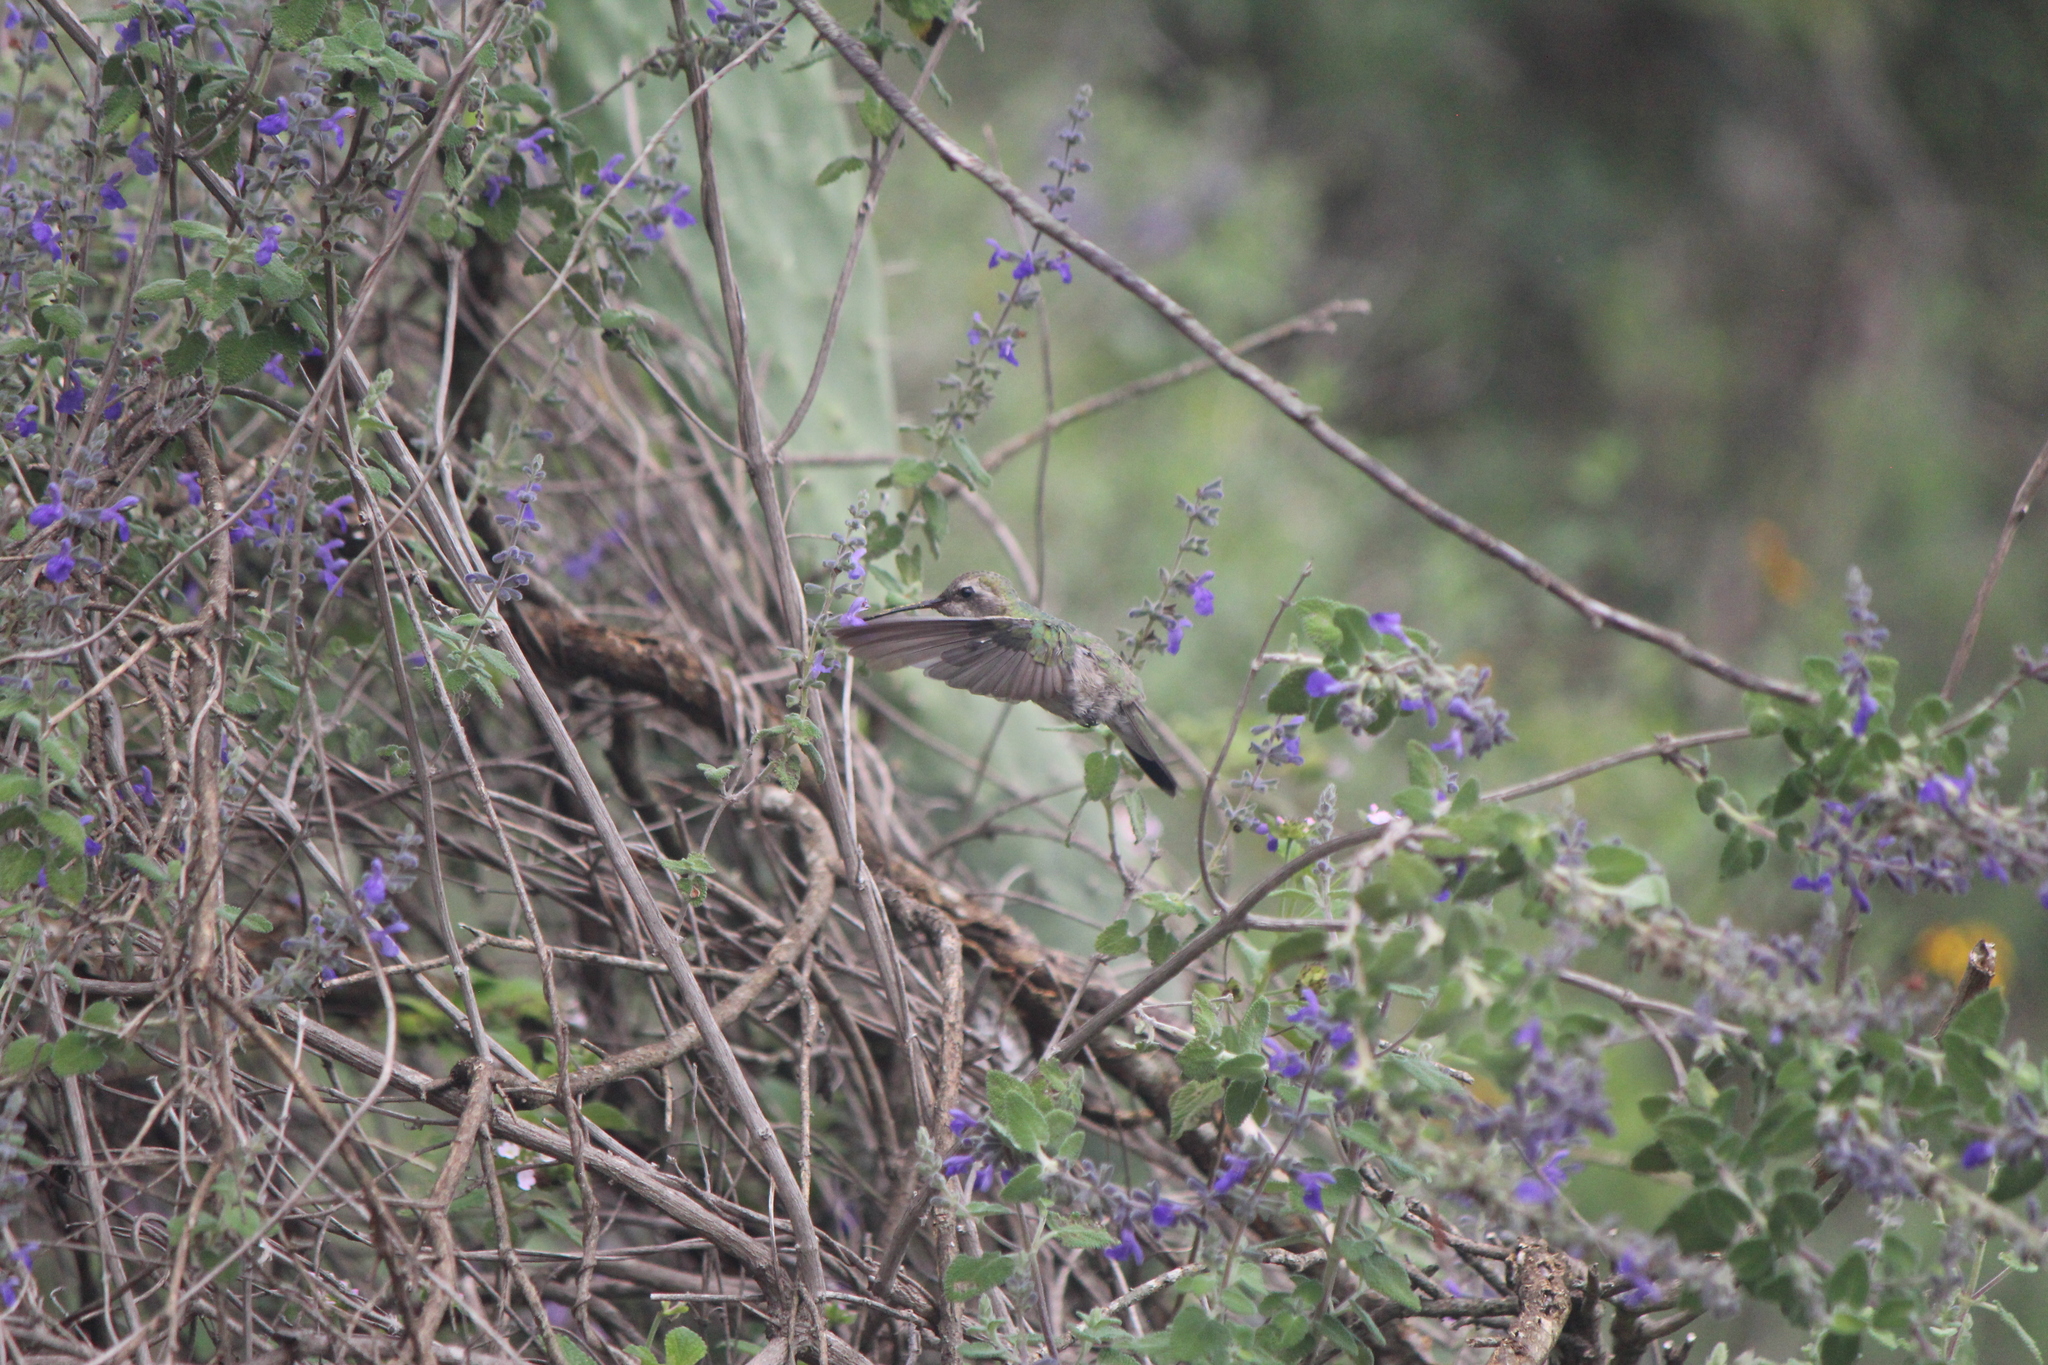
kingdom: Animalia
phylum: Chordata
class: Aves
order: Apodiformes
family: Trochilidae
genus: Cynanthus
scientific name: Cynanthus latirostris
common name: Broad-billed hummingbird
